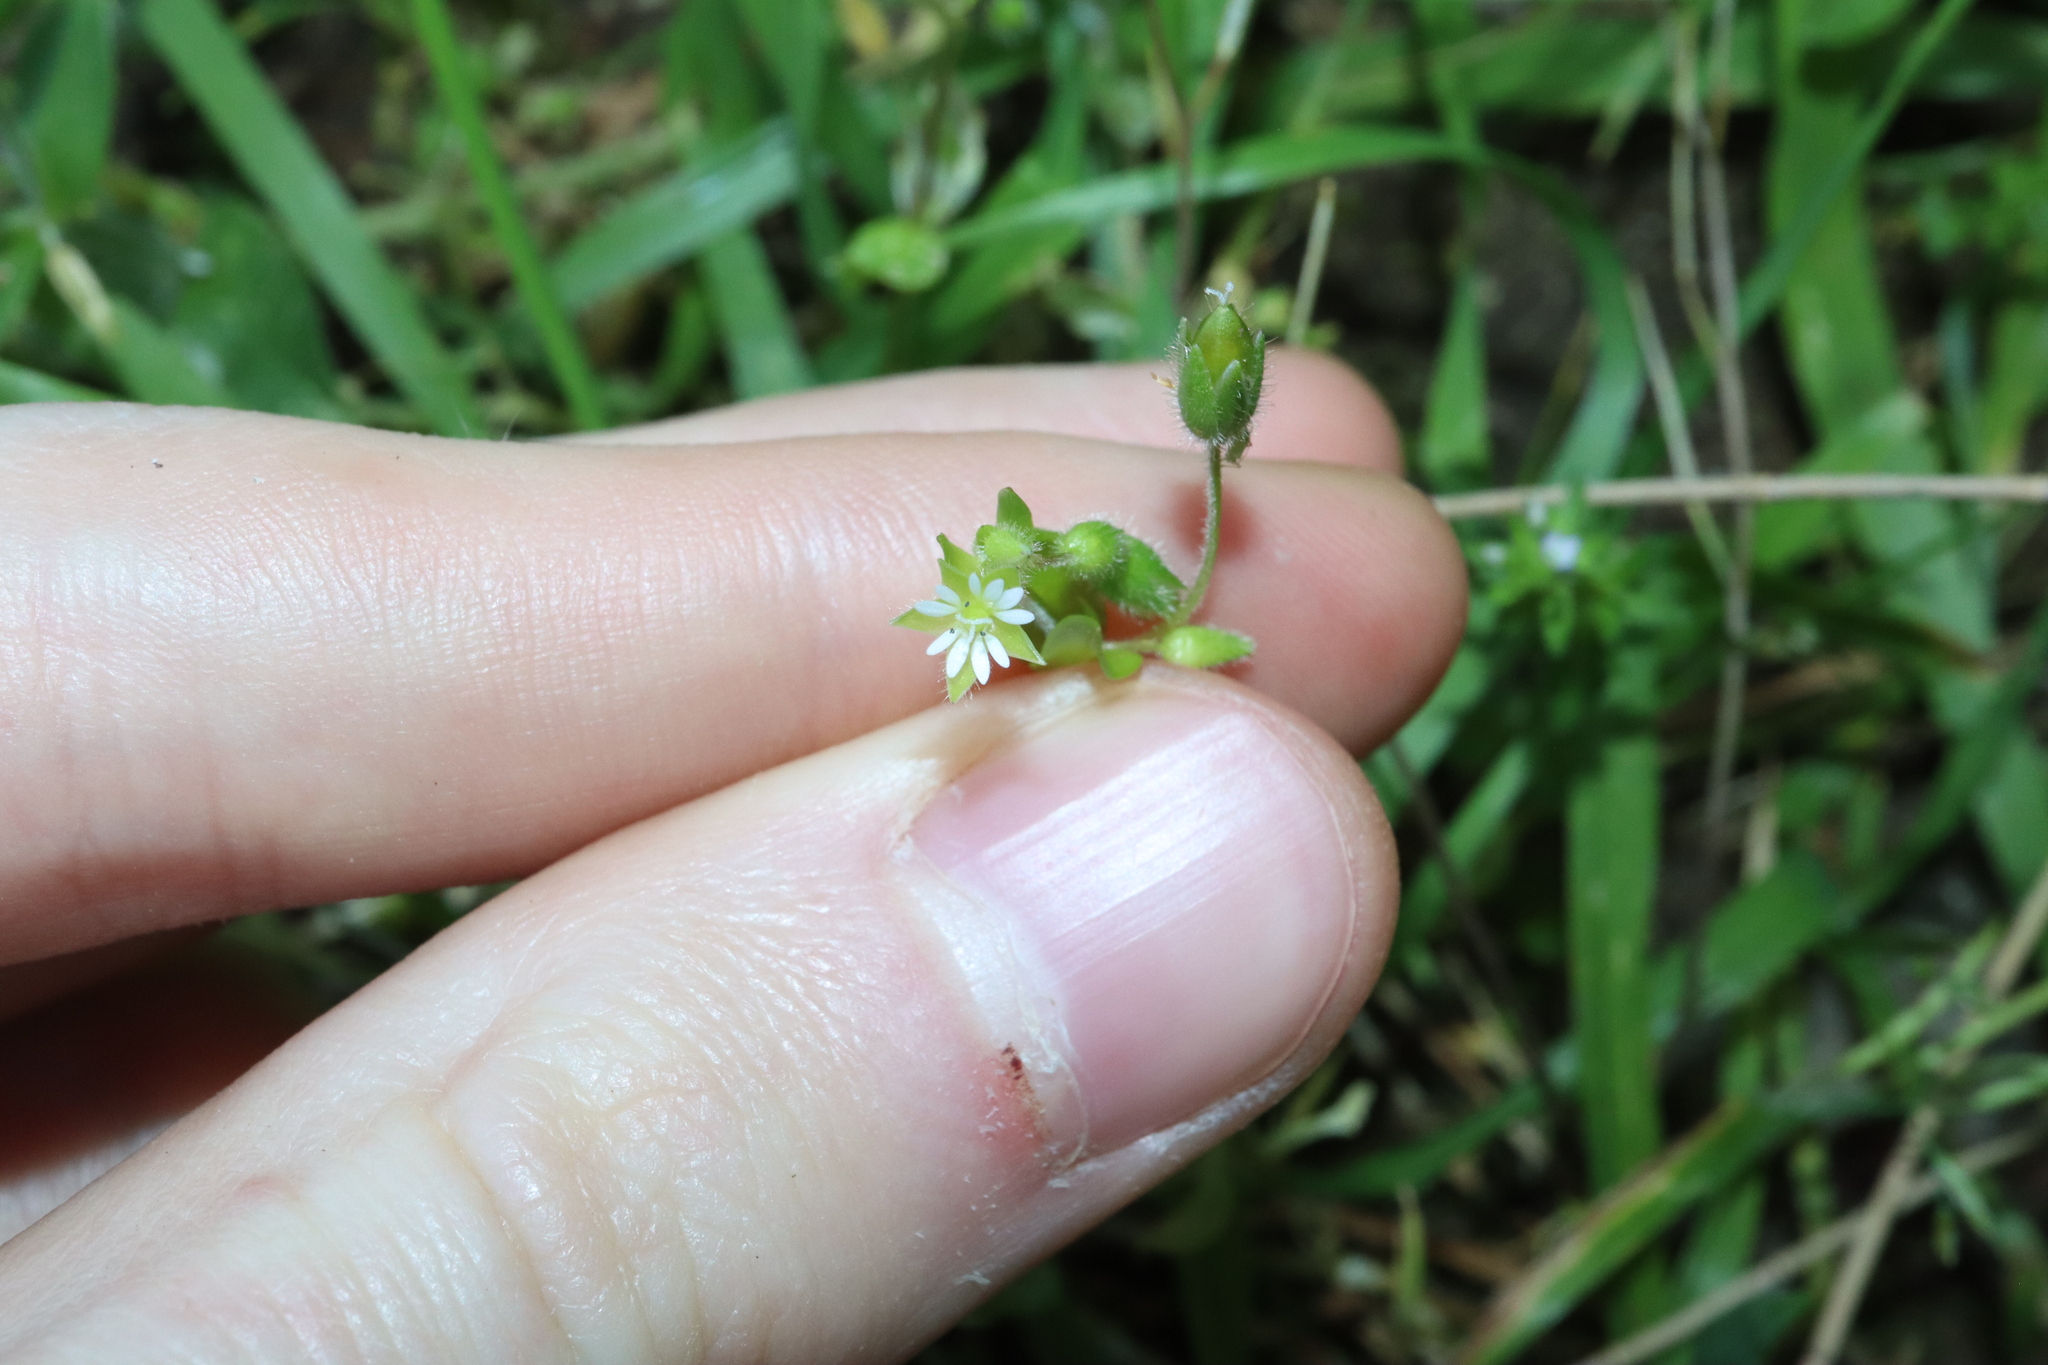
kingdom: Plantae
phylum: Tracheophyta
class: Magnoliopsida
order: Caryophyllales
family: Caryophyllaceae
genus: Stellaria
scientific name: Stellaria media
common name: Common chickweed
